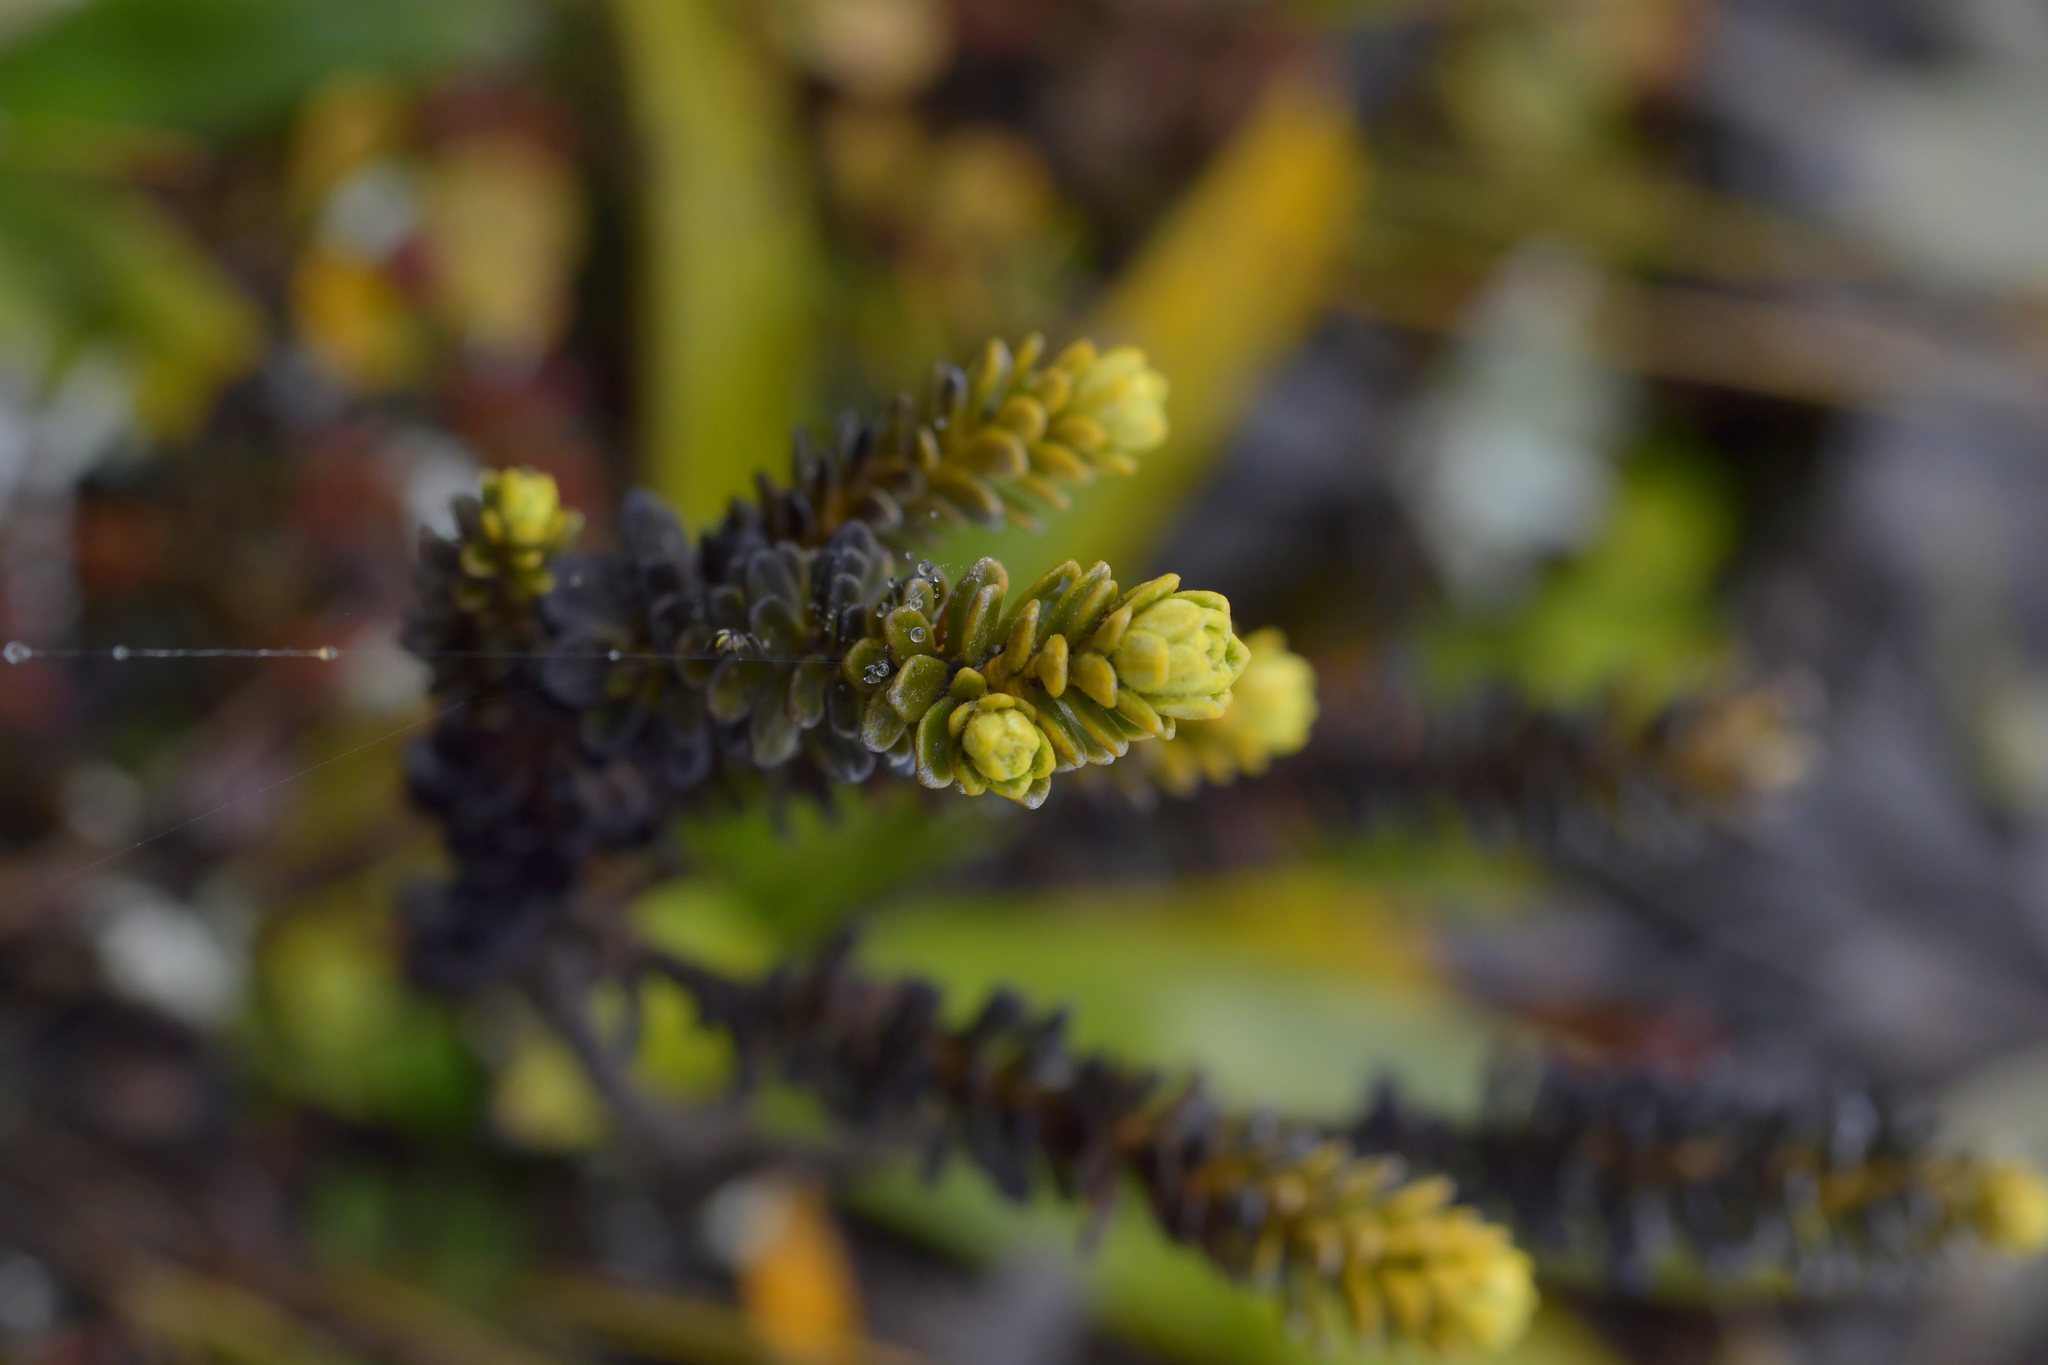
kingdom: Plantae
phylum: Tracheophyta
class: Magnoliopsida
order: Asterales
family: Asteraceae
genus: Ozothamnus
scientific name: Ozothamnus leptophyllus
